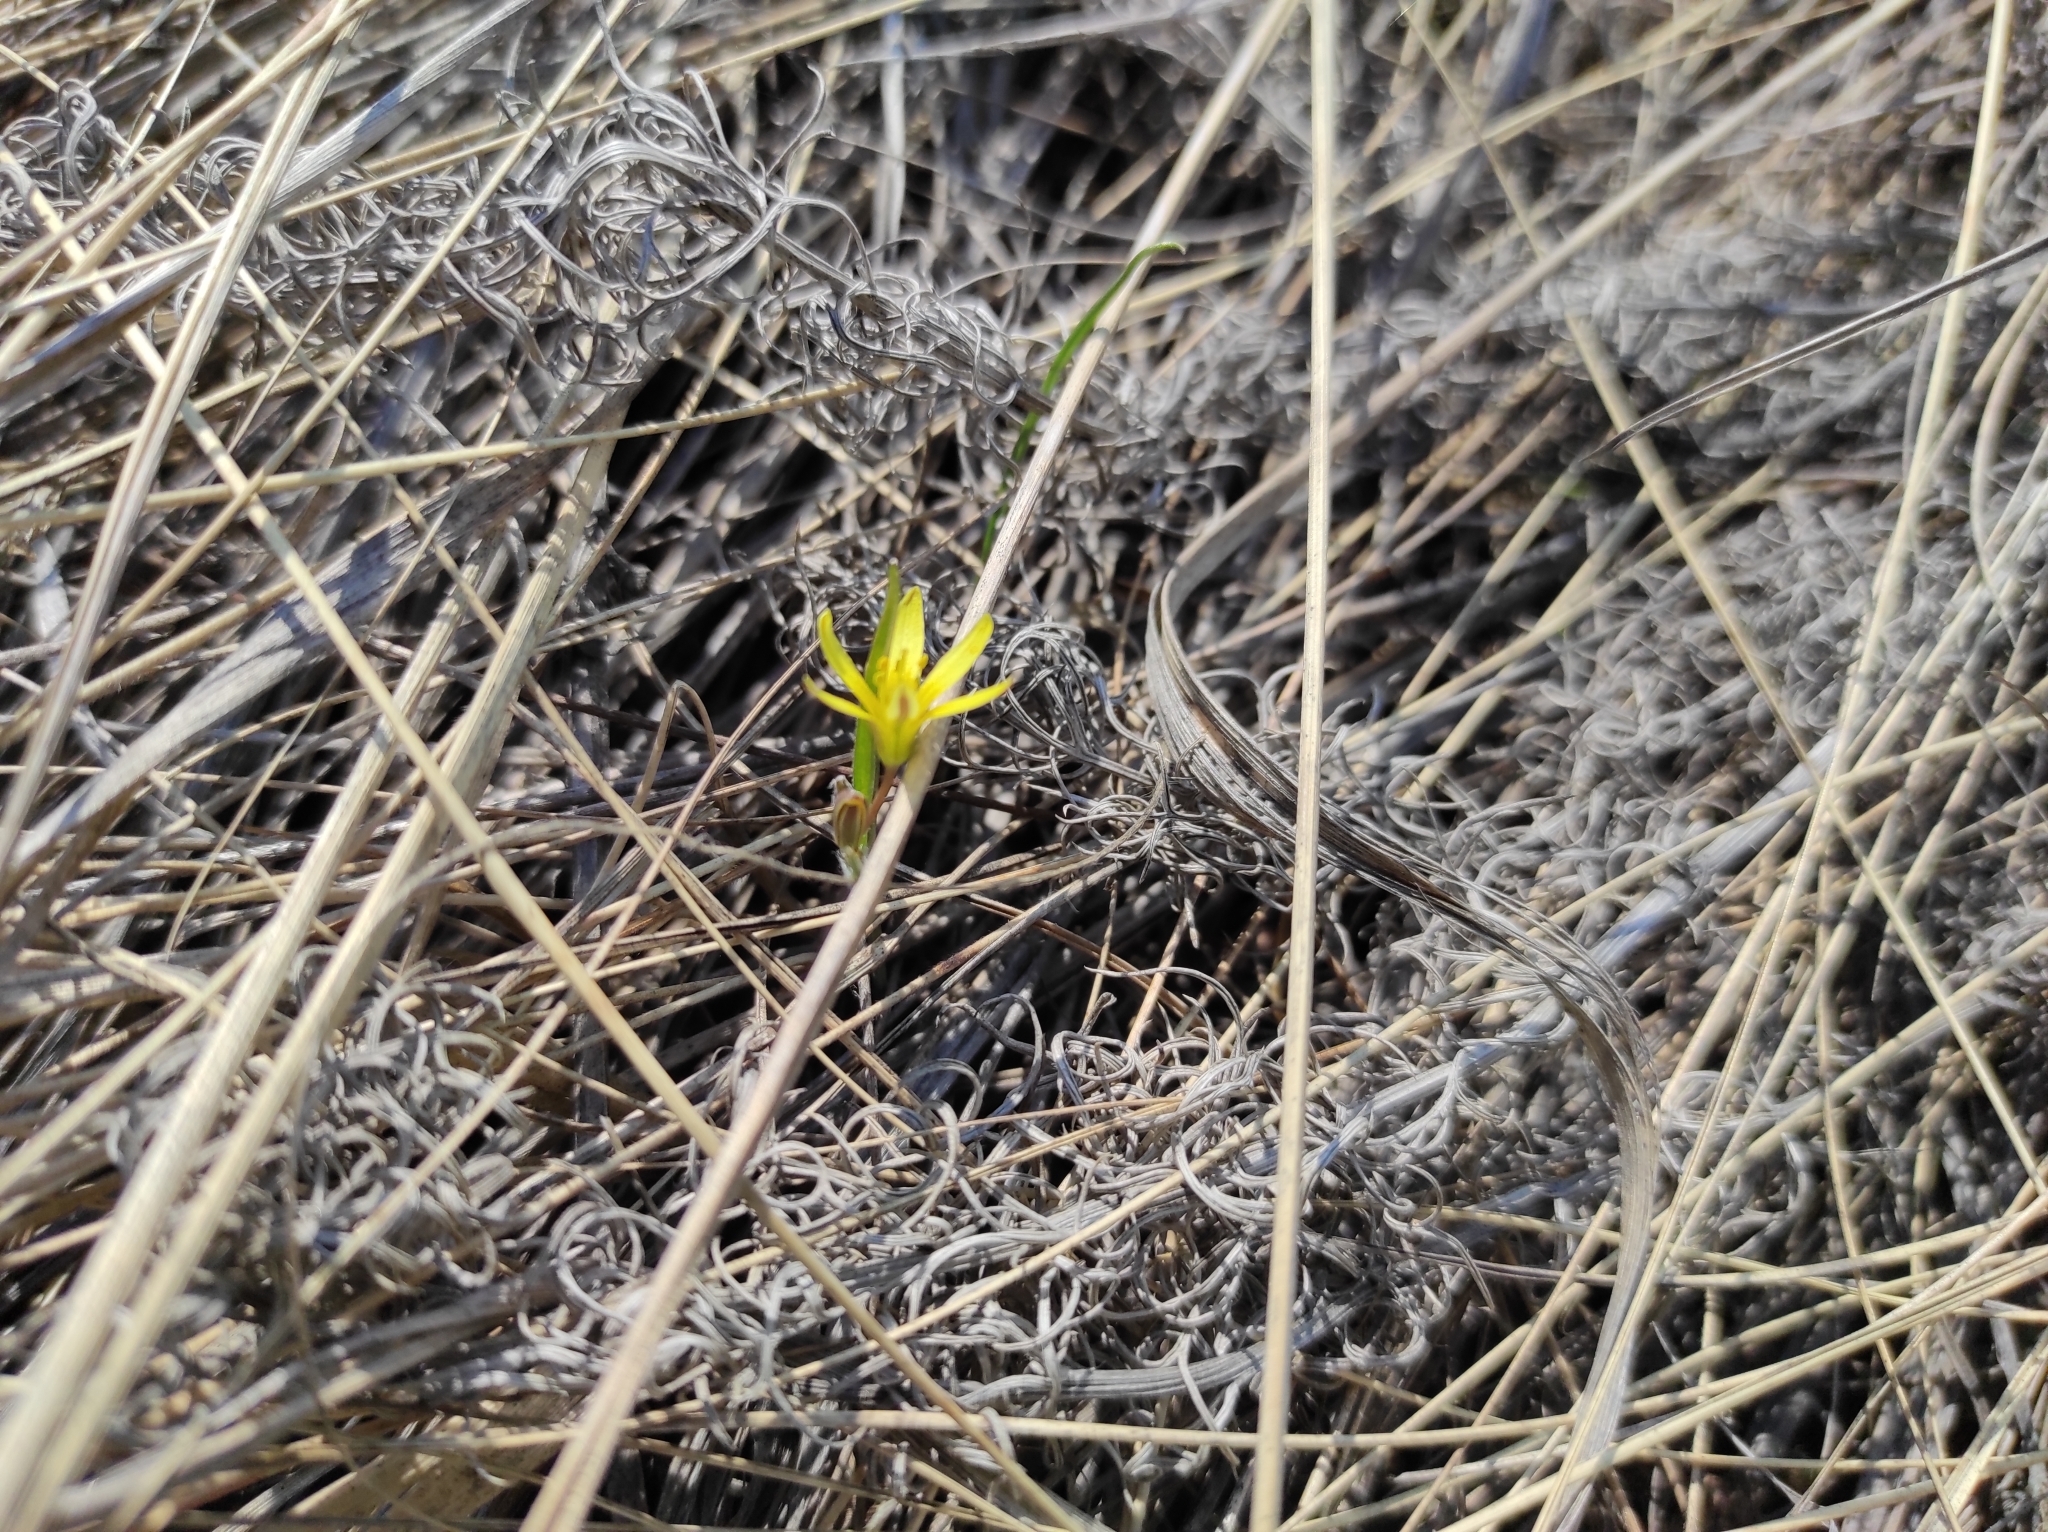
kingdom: Plantae
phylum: Tracheophyta
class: Liliopsida
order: Liliales
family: Liliaceae
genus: Gagea
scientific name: Gagea fedtschenkoana
